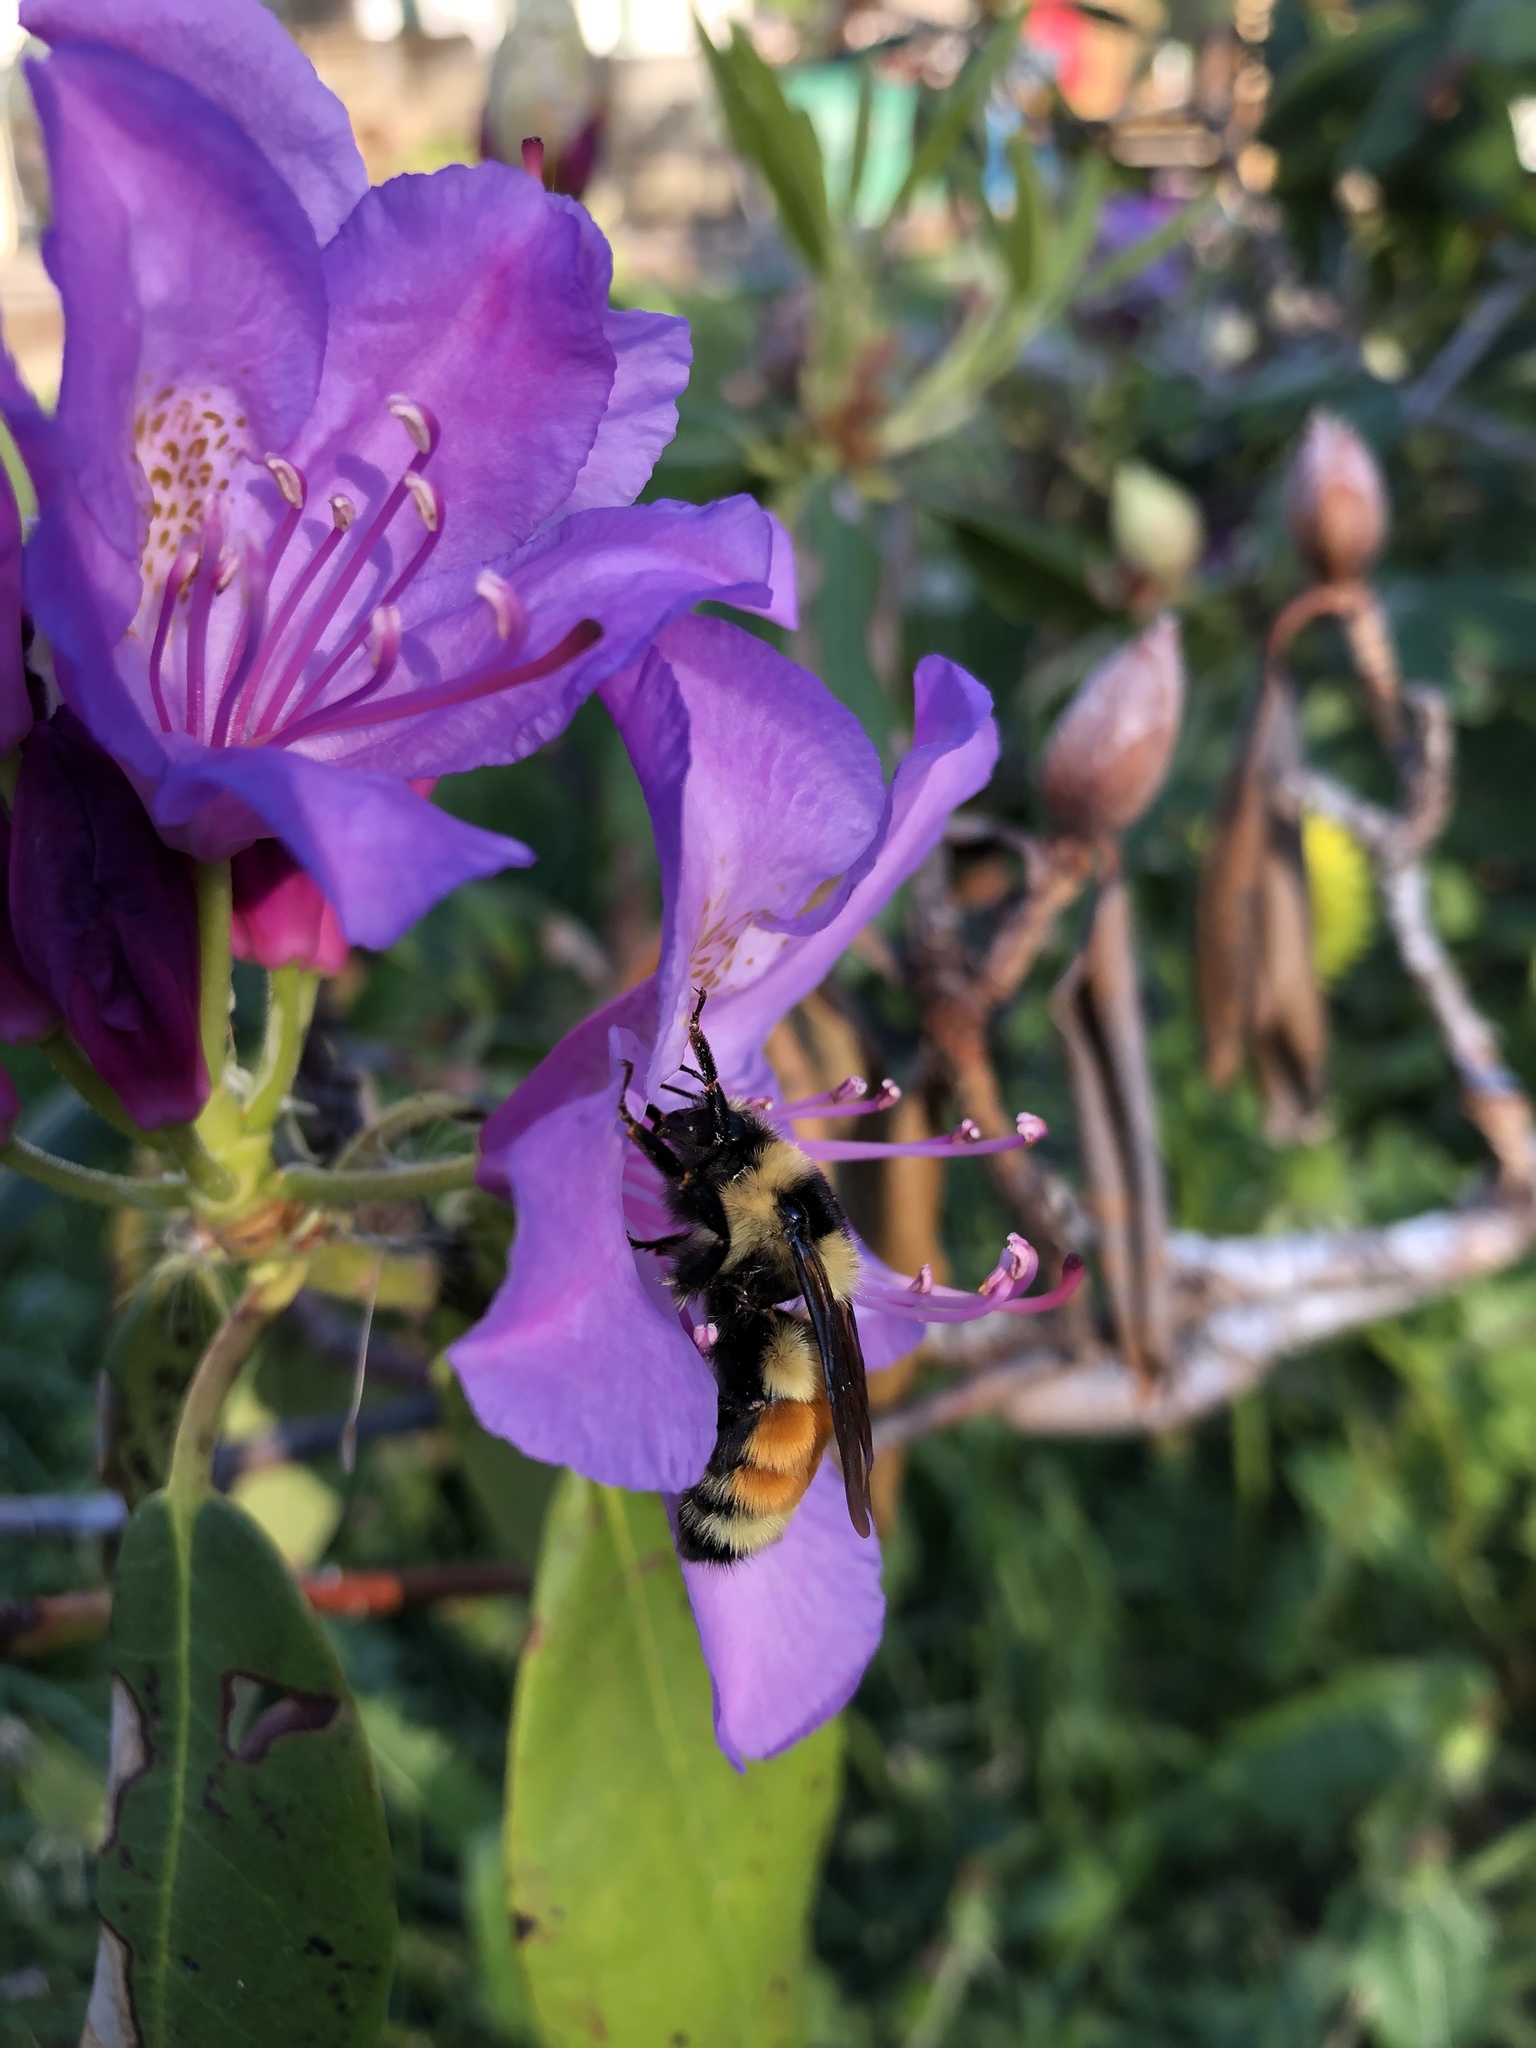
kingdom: Animalia
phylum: Arthropoda
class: Insecta
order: Hymenoptera
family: Apidae
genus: Bombus
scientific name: Bombus ternarius
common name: Tri-colored bumble bee
